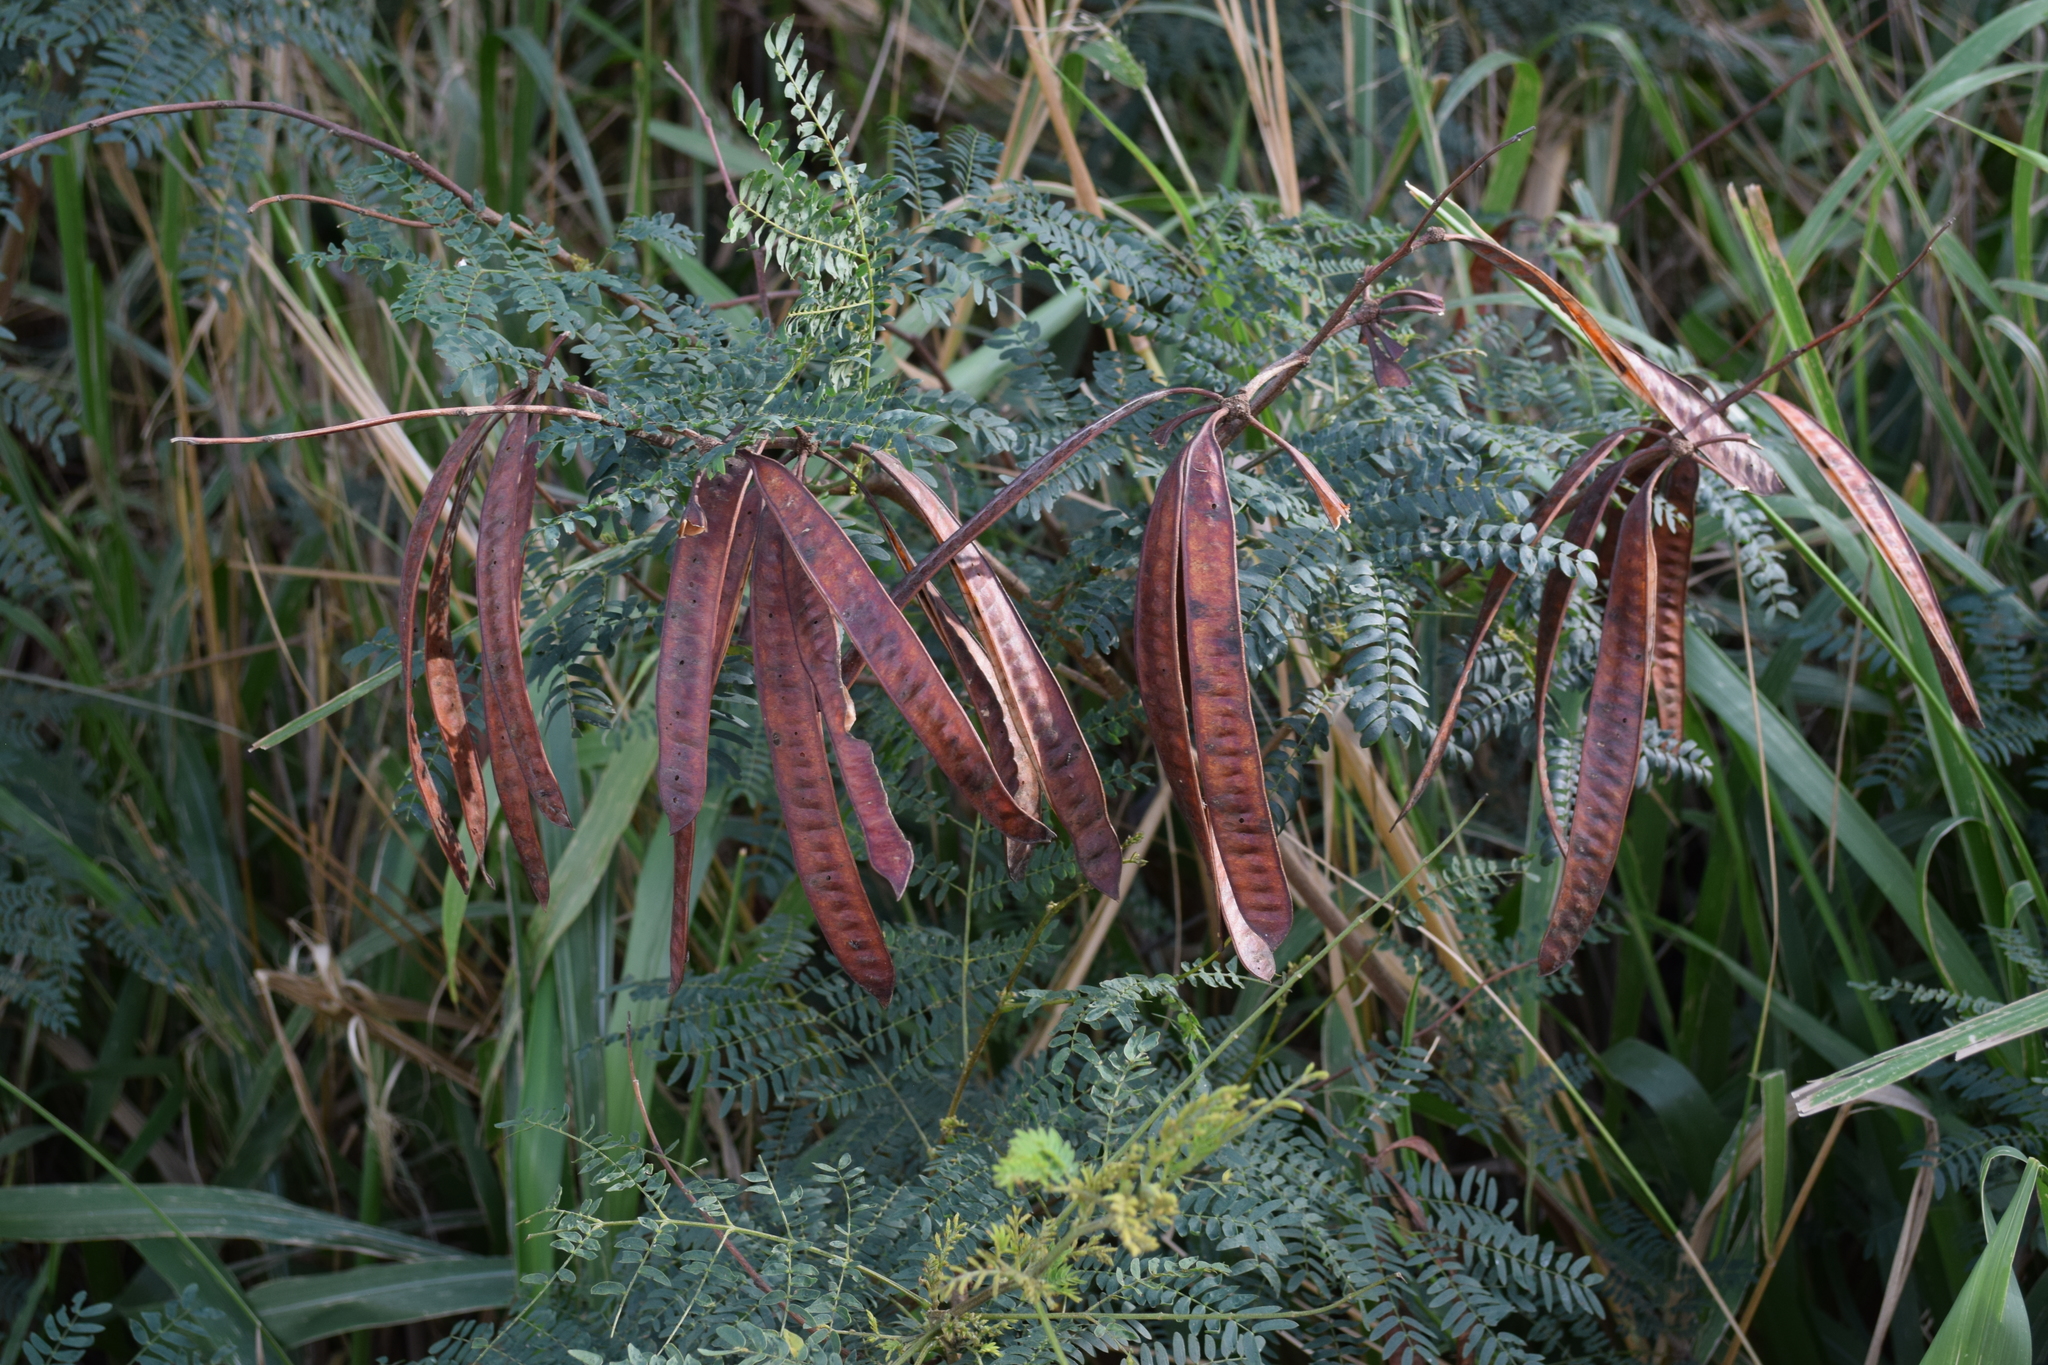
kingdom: Plantae
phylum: Tracheophyta
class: Magnoliopsida
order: Fabales
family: Fabaceae
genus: Leucaena
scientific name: Leucaena leucocephala
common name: White leadtree
